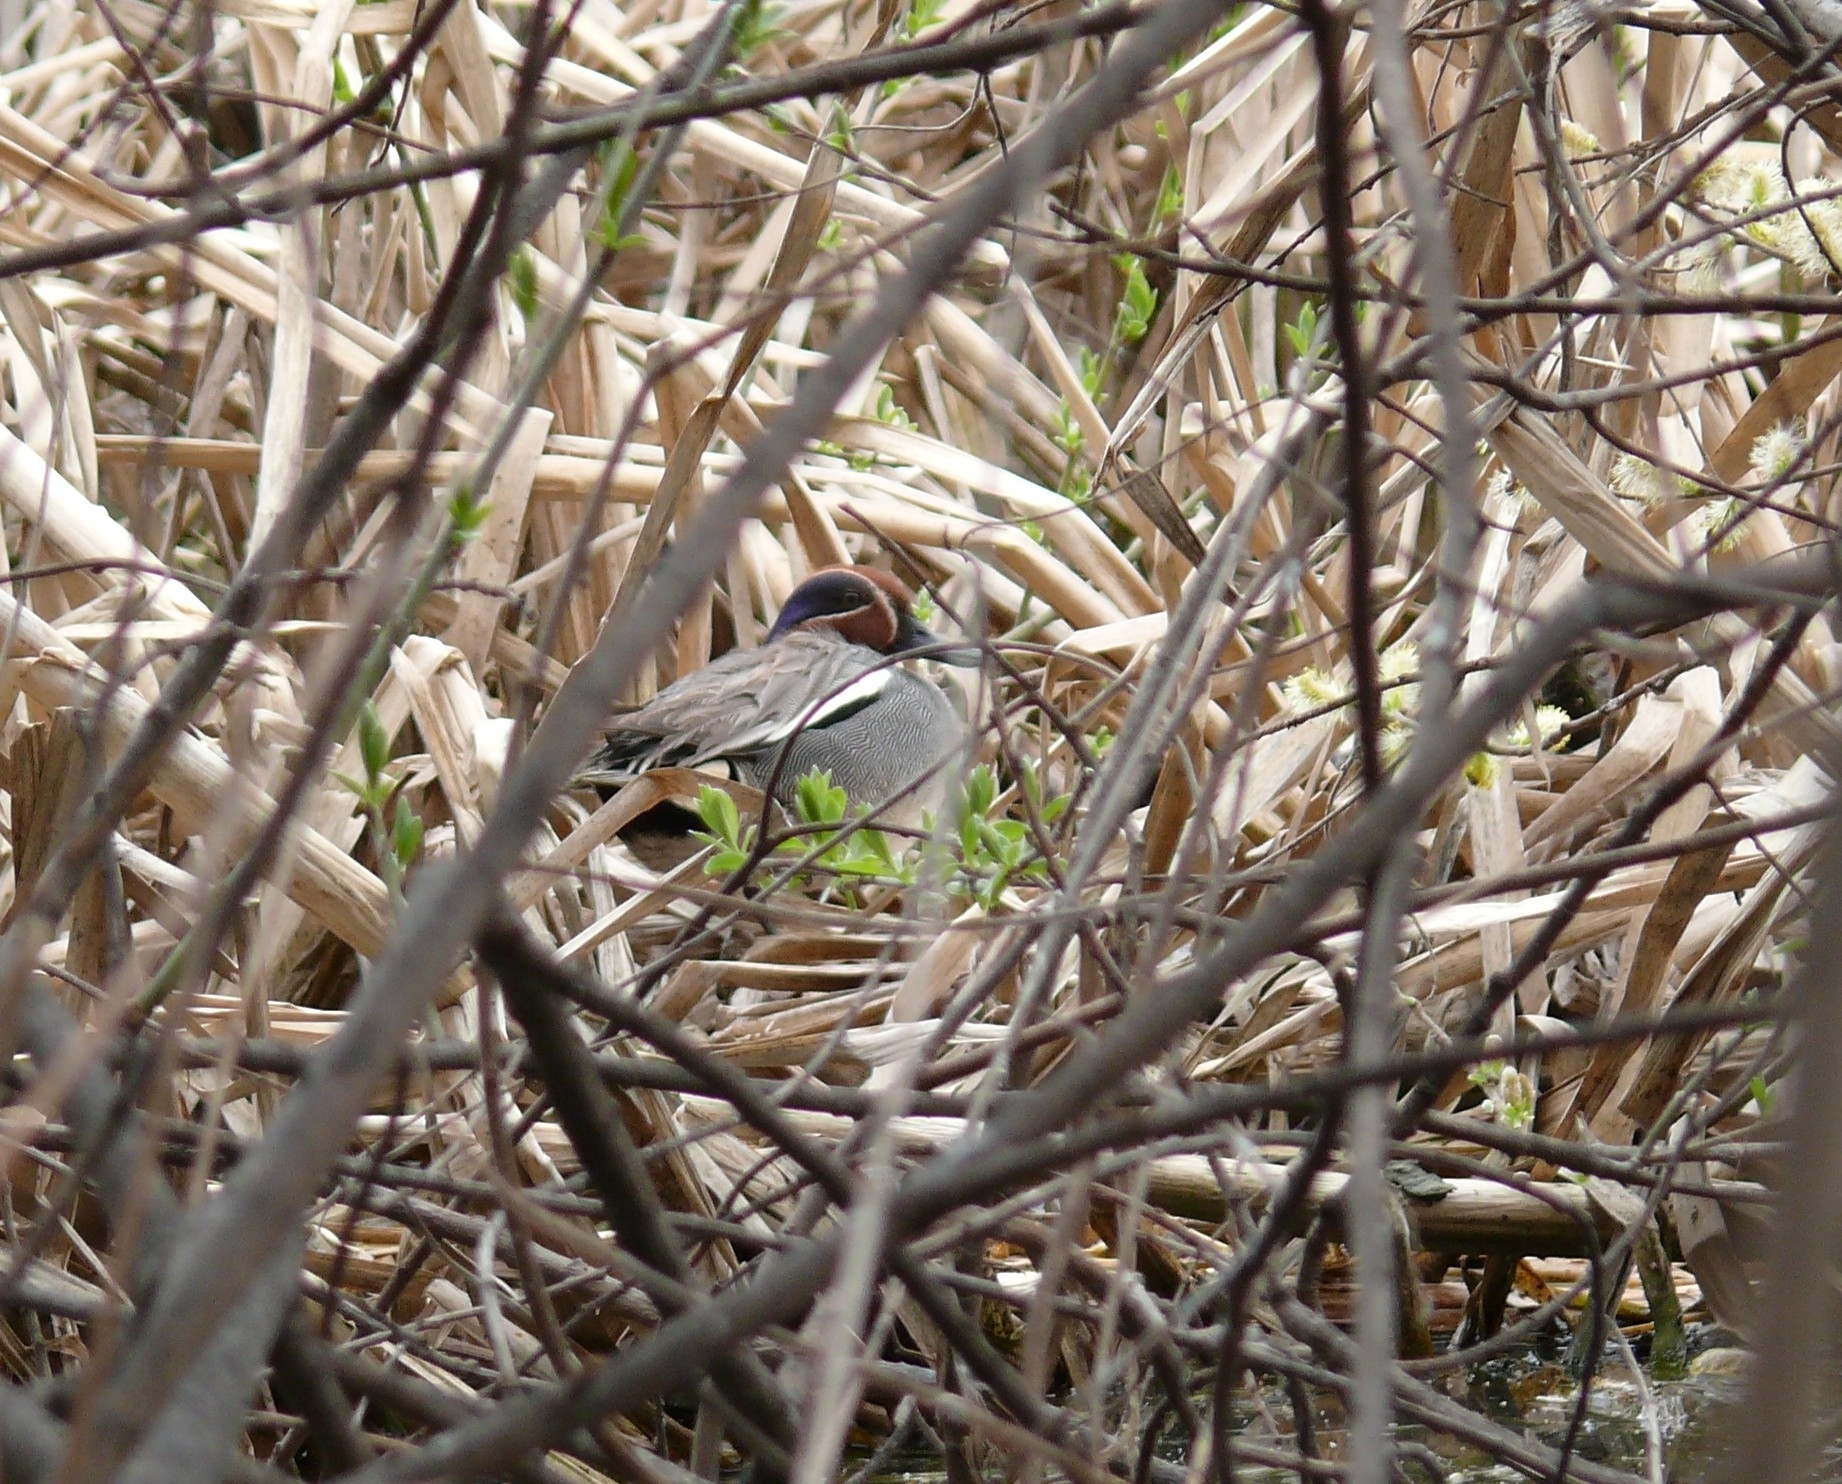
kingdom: Animalia
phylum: Chordata
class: Aves
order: Anseriformes
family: Anatidae
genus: Anas
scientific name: Anas crecca
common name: Eurasian teal
